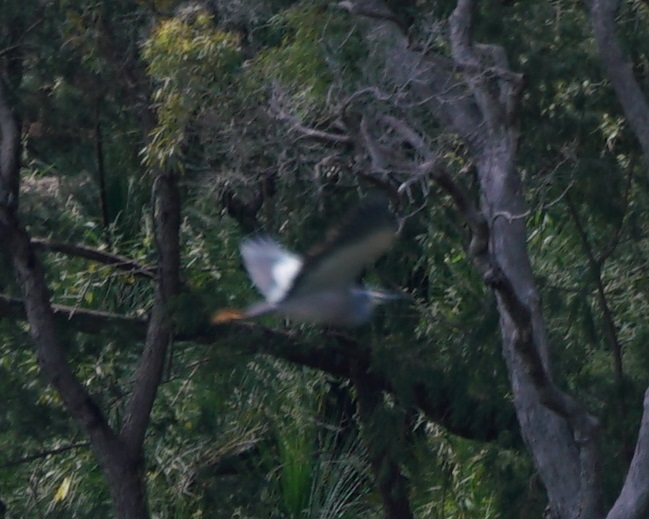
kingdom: Animalia
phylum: Chordata
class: Aves
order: Pelecaniformes
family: Ardeidae
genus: Egretta
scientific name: Egretta novaehollandiae
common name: White-faced heron
